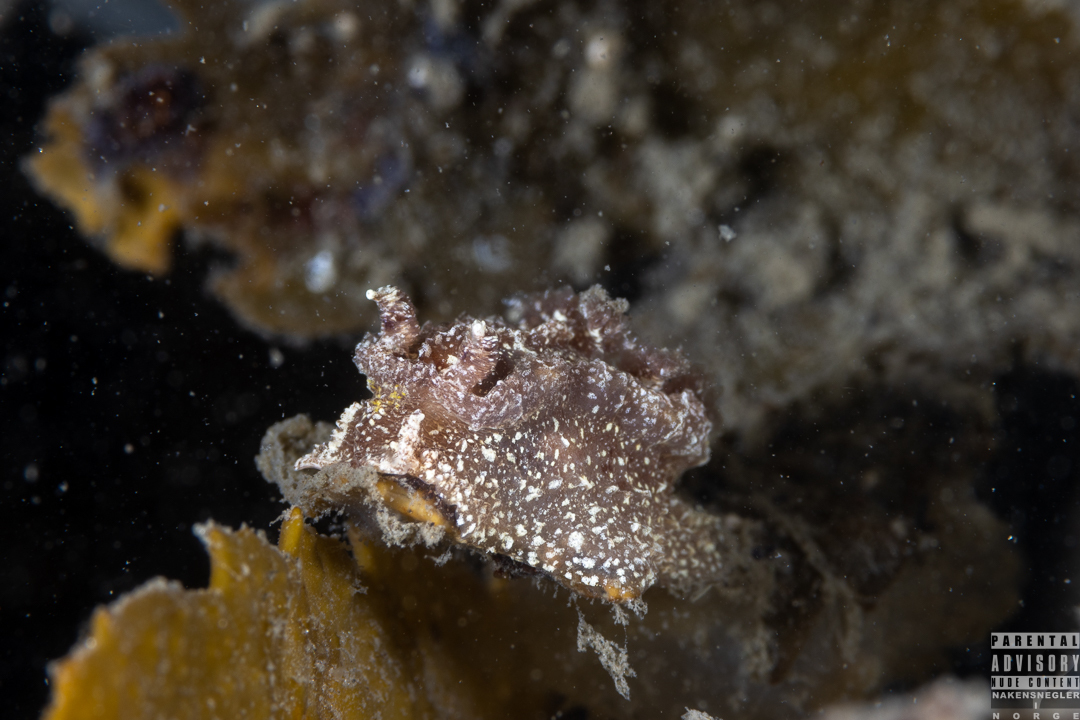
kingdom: Animalia
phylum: Mollusca
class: Gastropoda
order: Nudibranchia
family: Goniodorididae
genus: Pelagella
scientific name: Pelagella castanea
